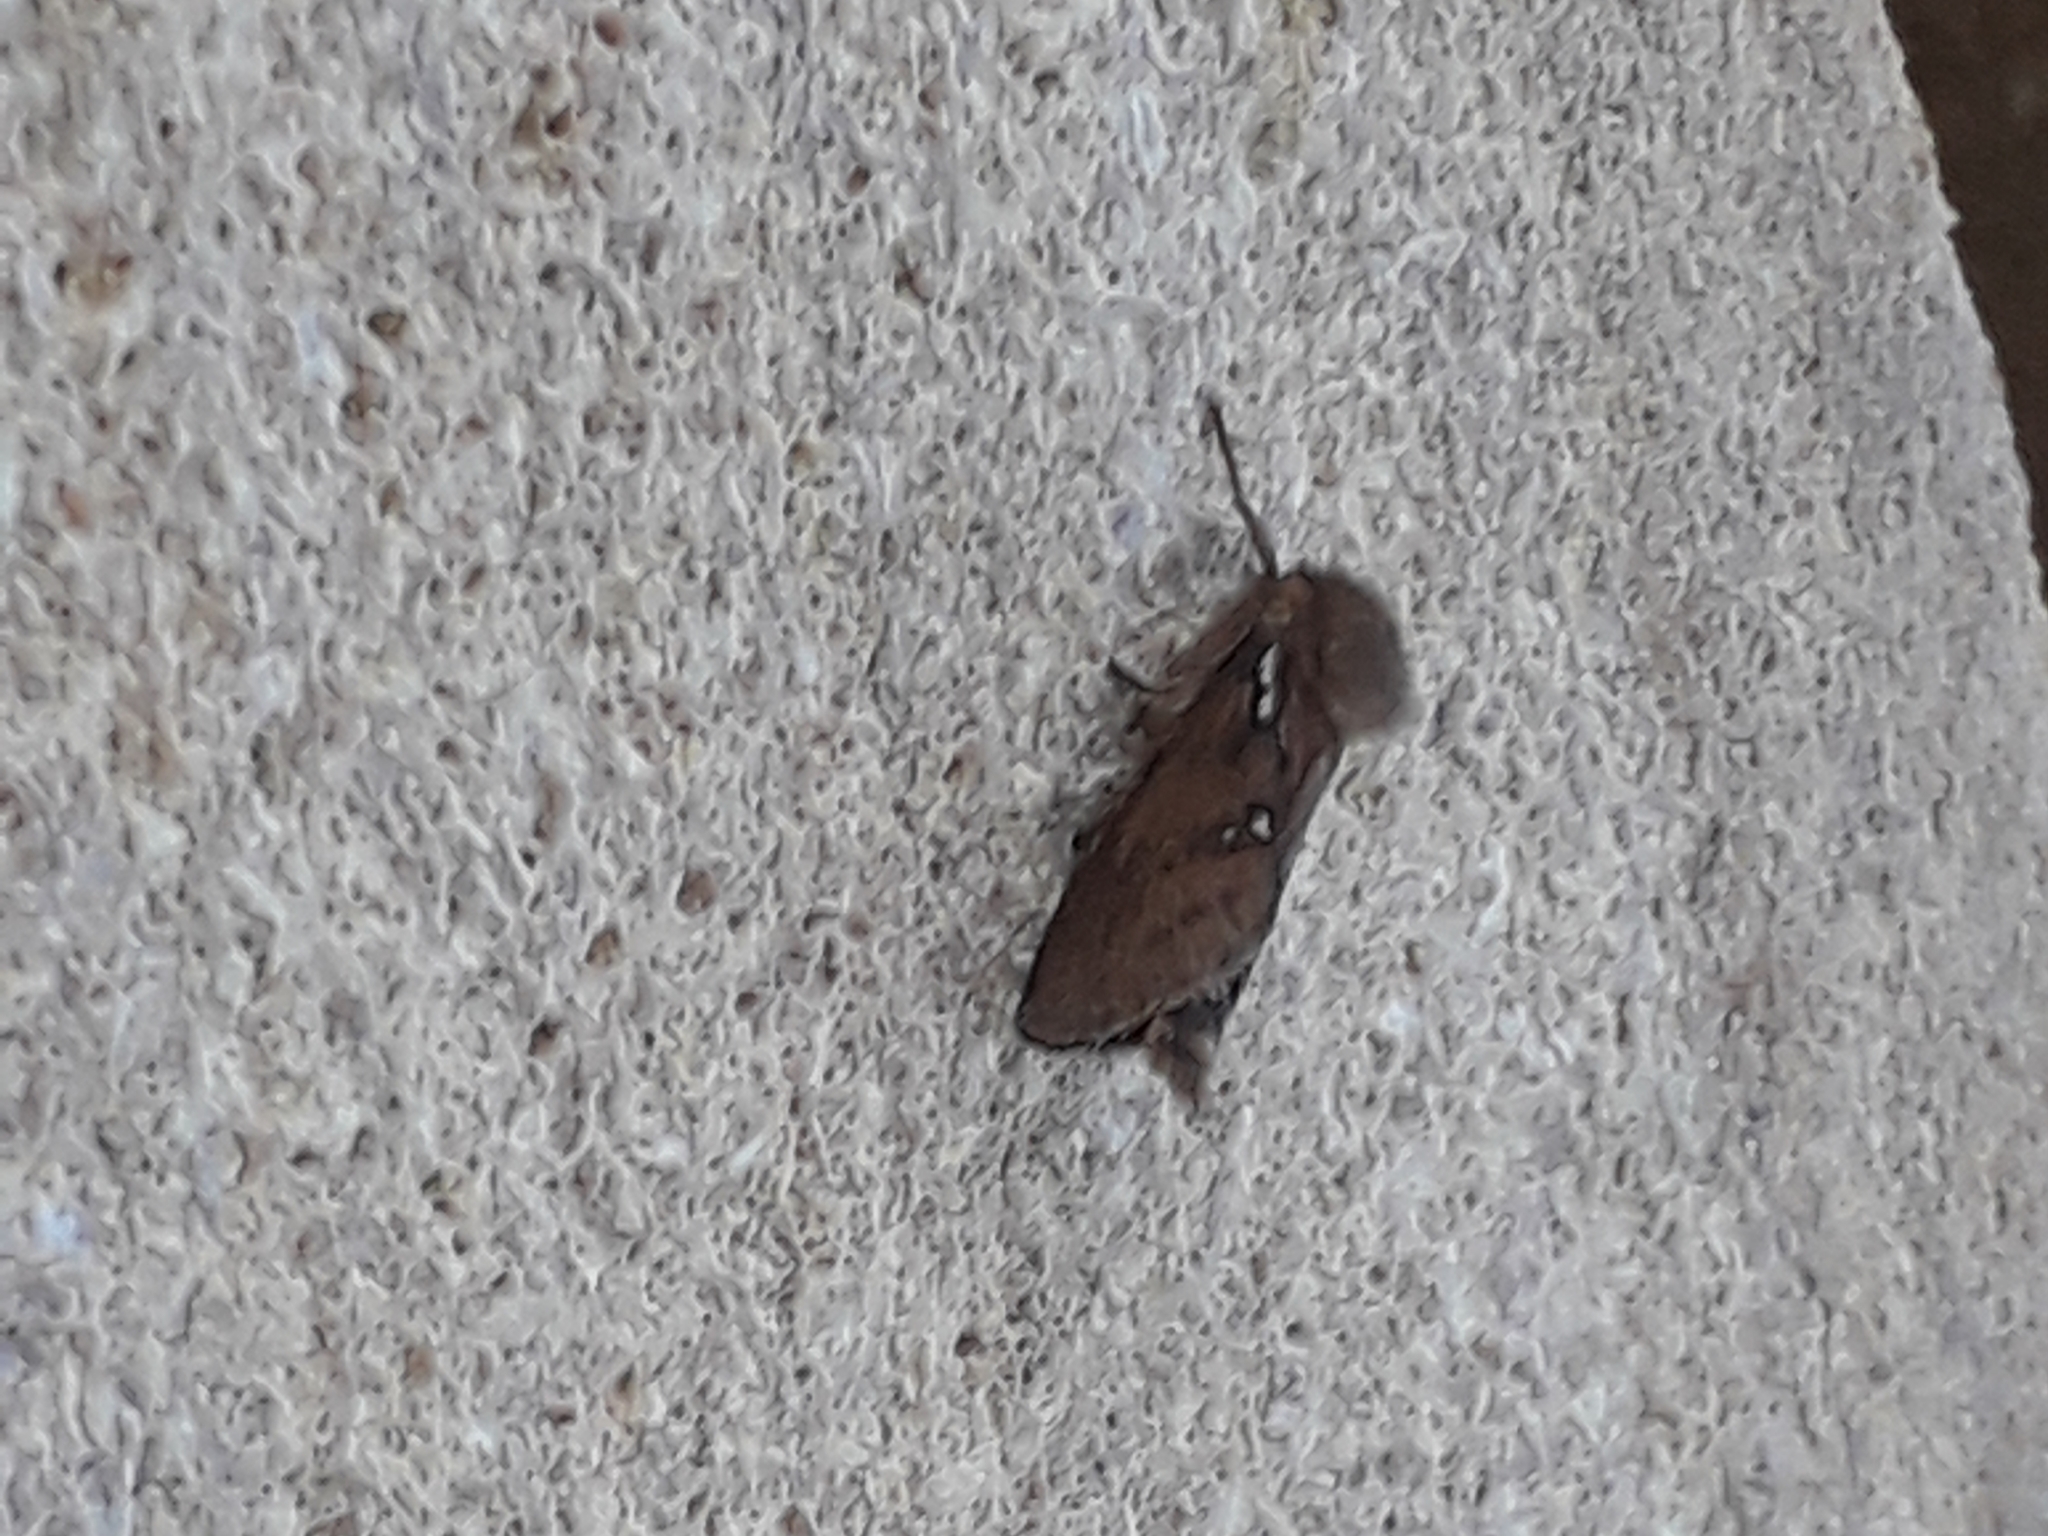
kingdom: Animalia
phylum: Arthropoda
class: Insecta
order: Lepidoptera
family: Hepialidae
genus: Korscheltellus
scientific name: Korscheltellus lupulina
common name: Common swift
